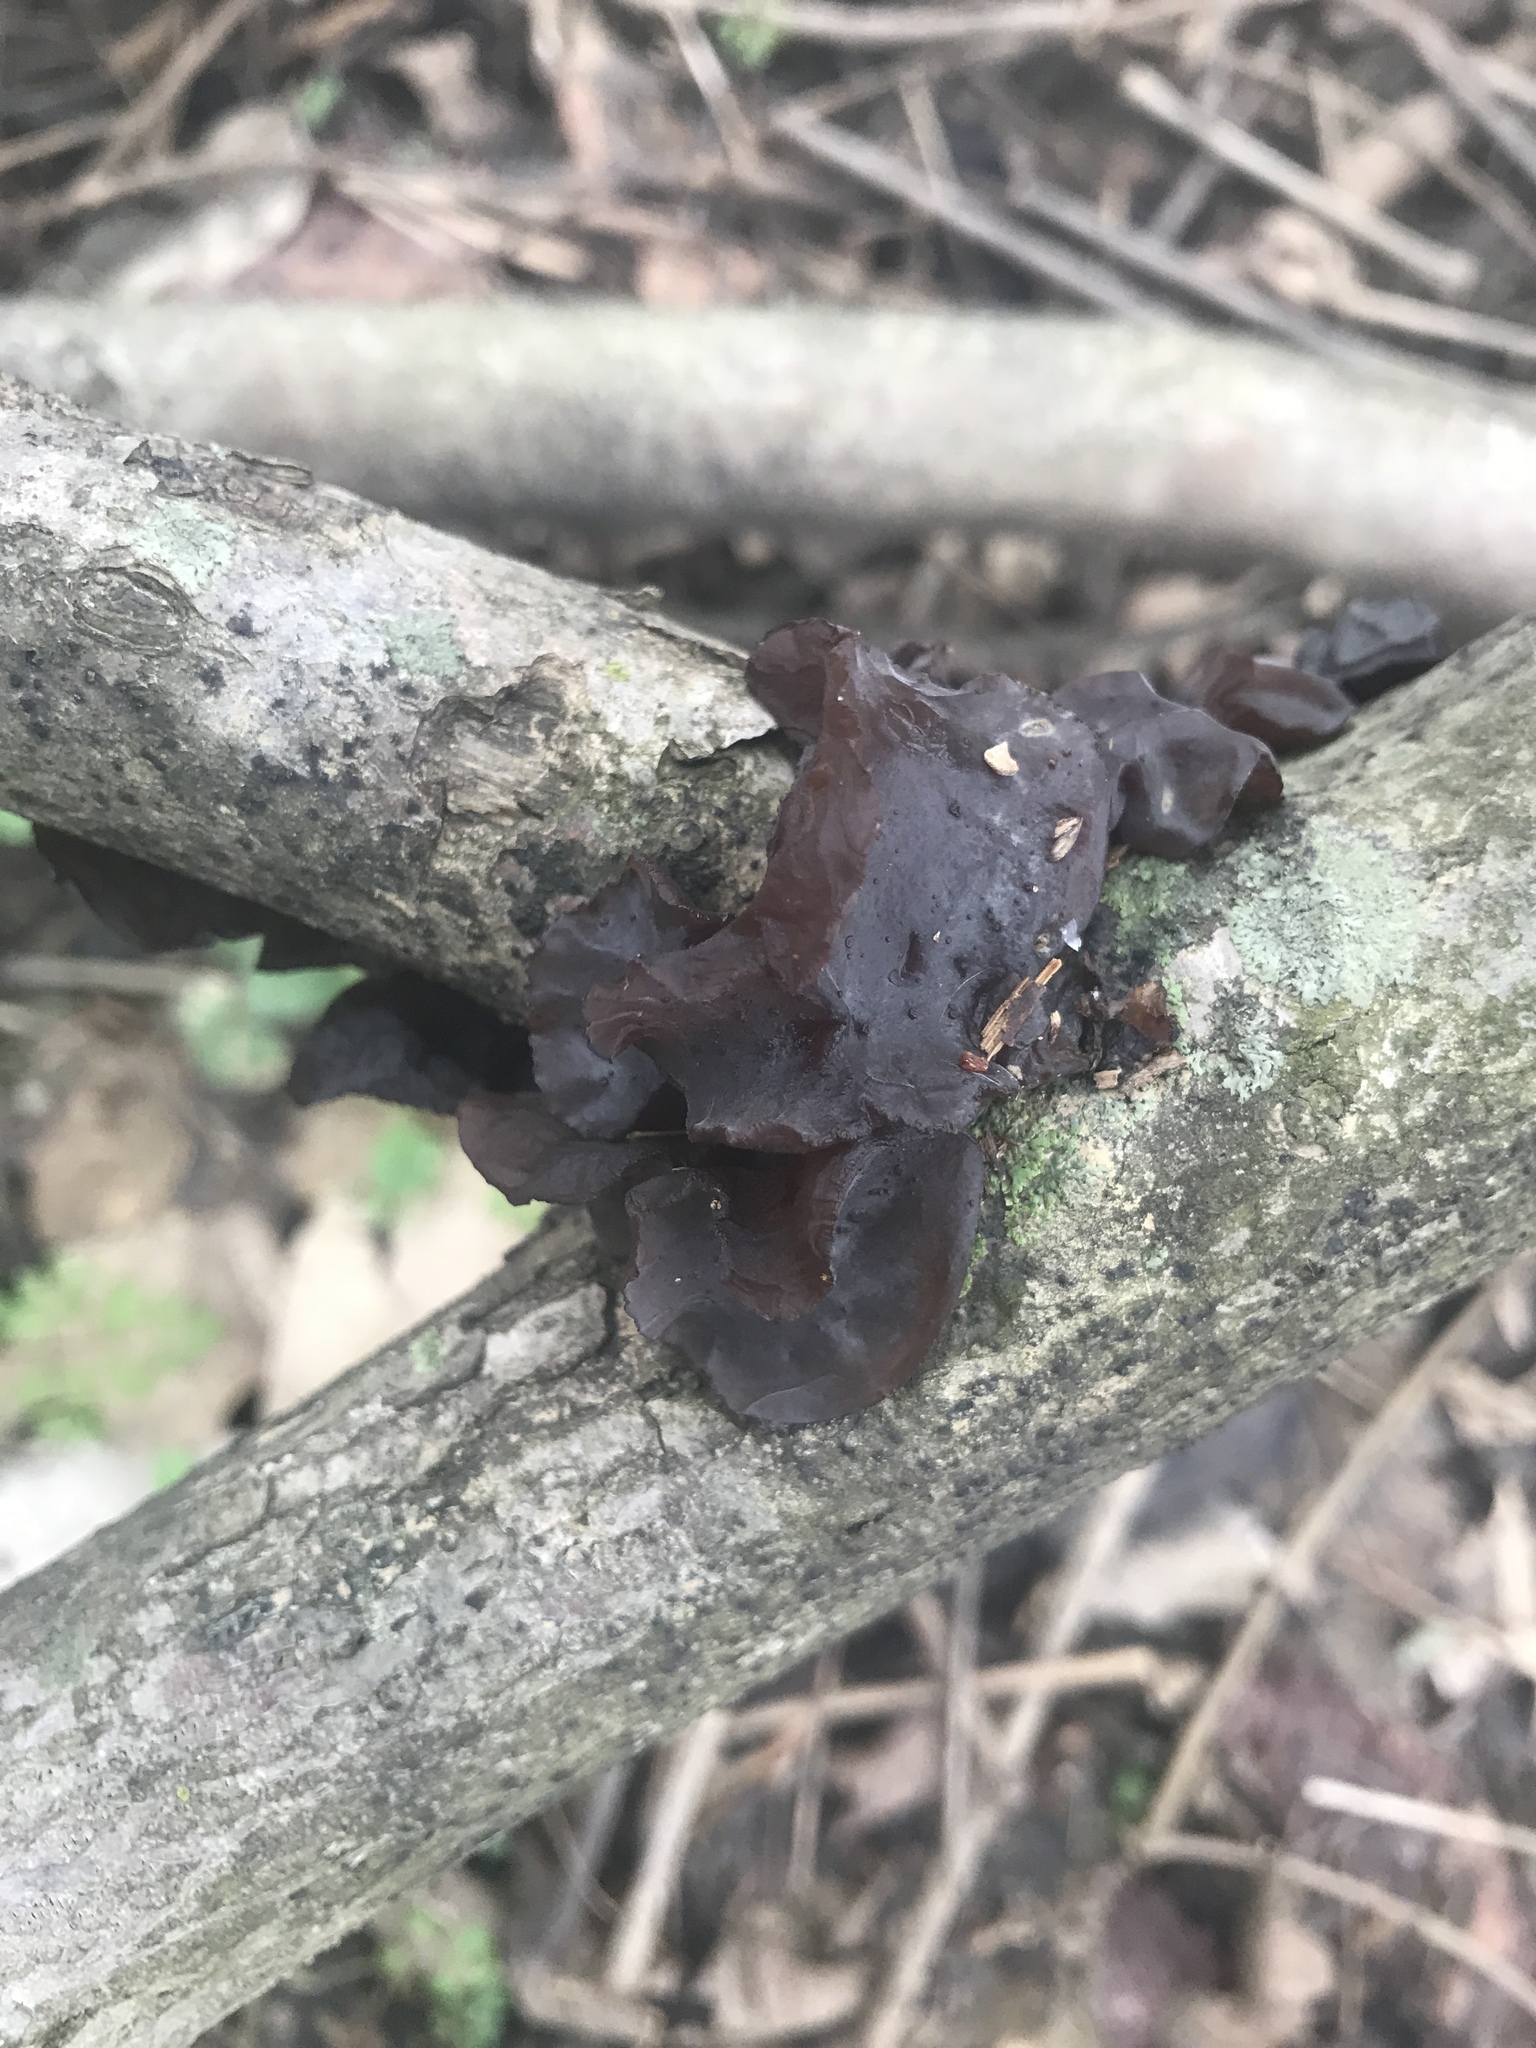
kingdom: Fungi
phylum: Basidiomycota
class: Agaricomycetes
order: Auriculariales
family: Auriculariaceae
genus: Exidia
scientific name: Exidia
